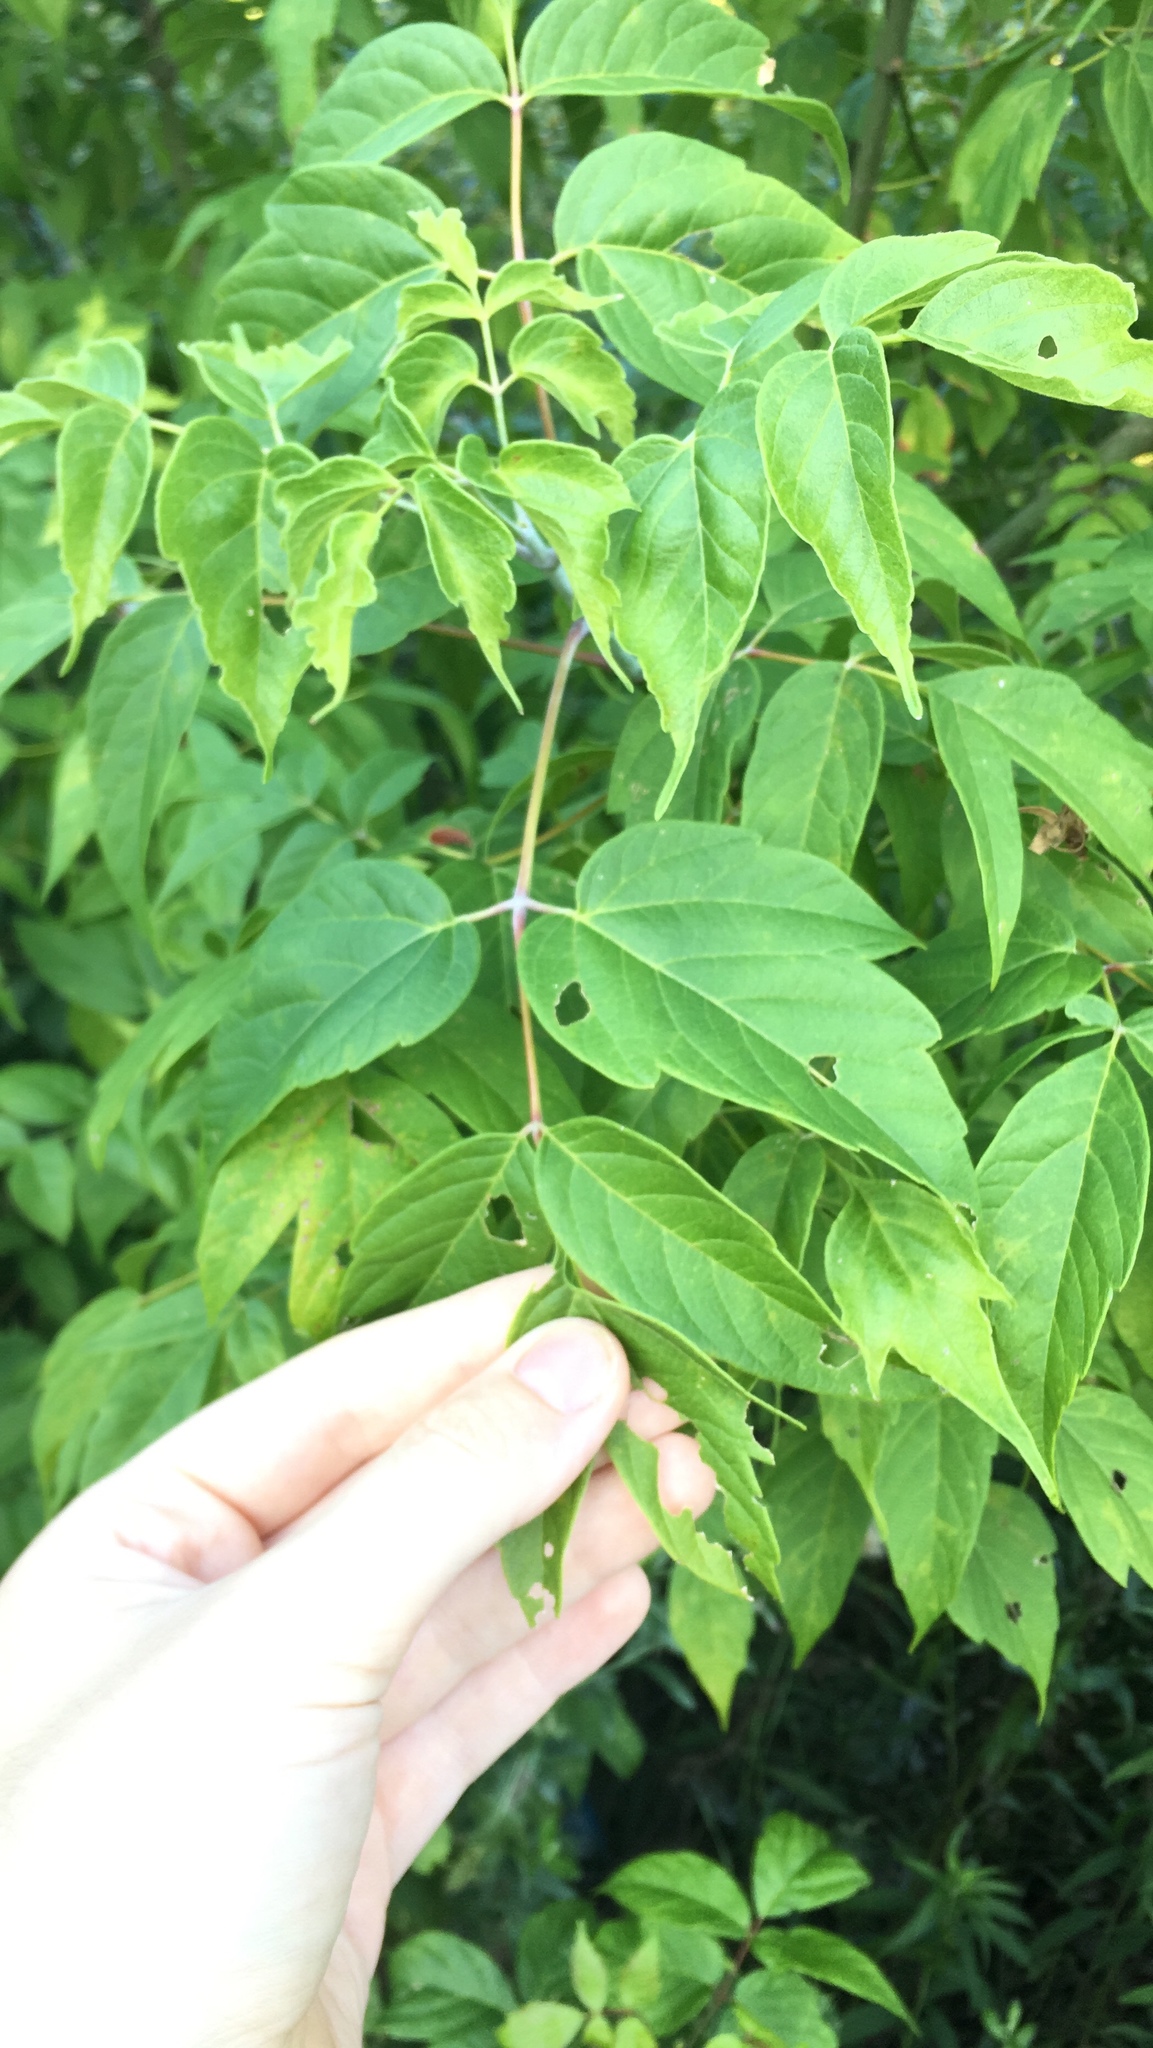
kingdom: Plantae
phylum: Tracheophyta
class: Magnoliopsida
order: Sapindales
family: Sapindaceae
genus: Acer
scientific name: Acer negundo
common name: Ashleaf maple
